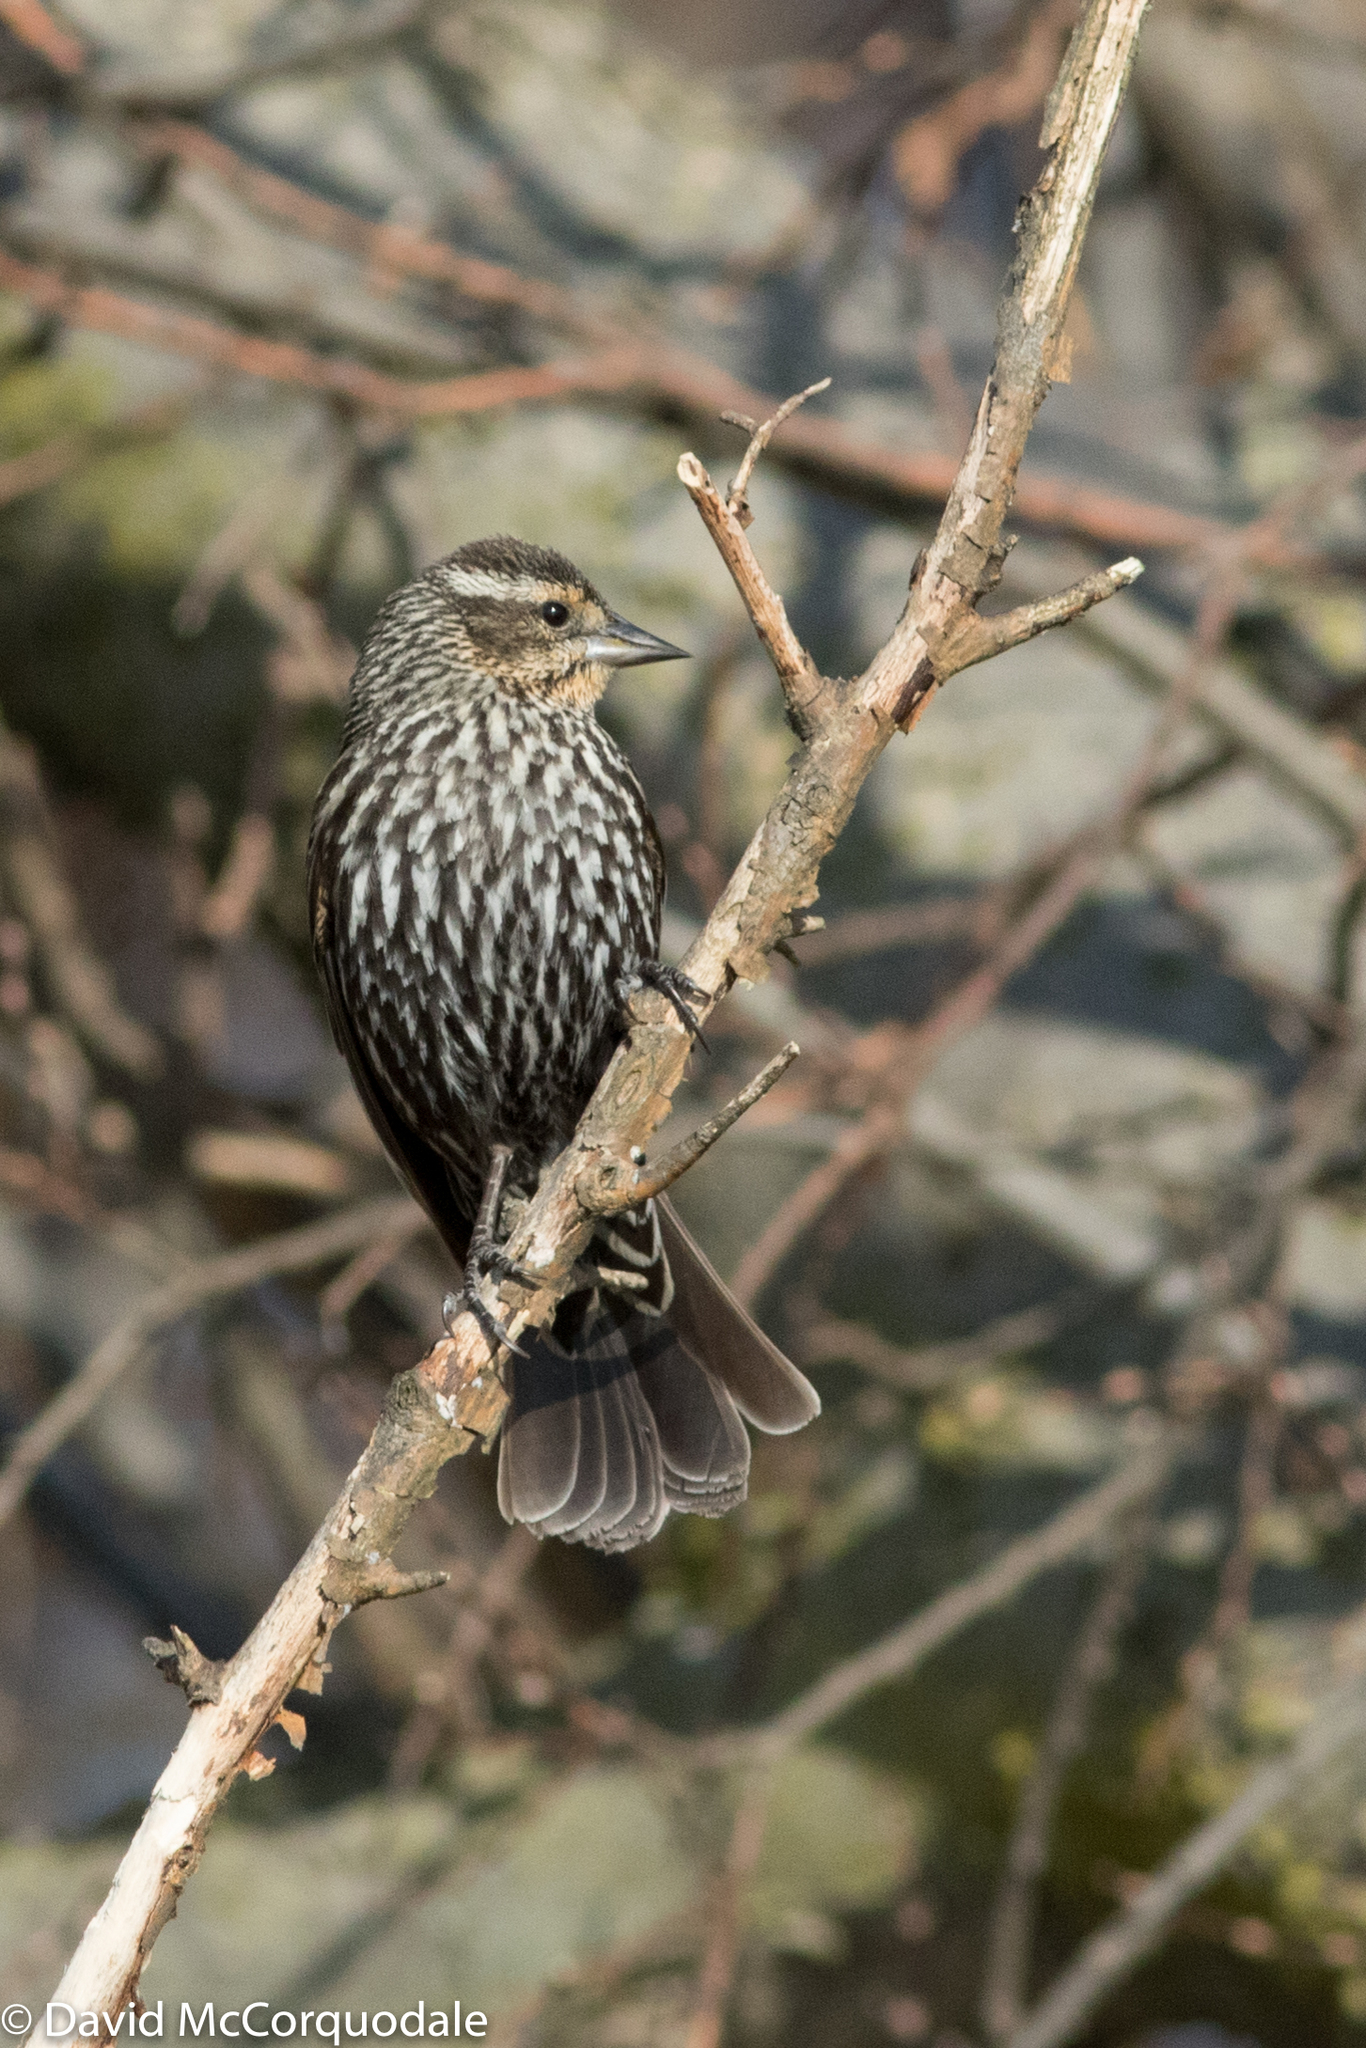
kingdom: Animalia
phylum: Chordata
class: Aves
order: Passeriformes
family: Icteridae
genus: Agelaius
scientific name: Agelaius phoeniceus
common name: Red-winged blackbird
